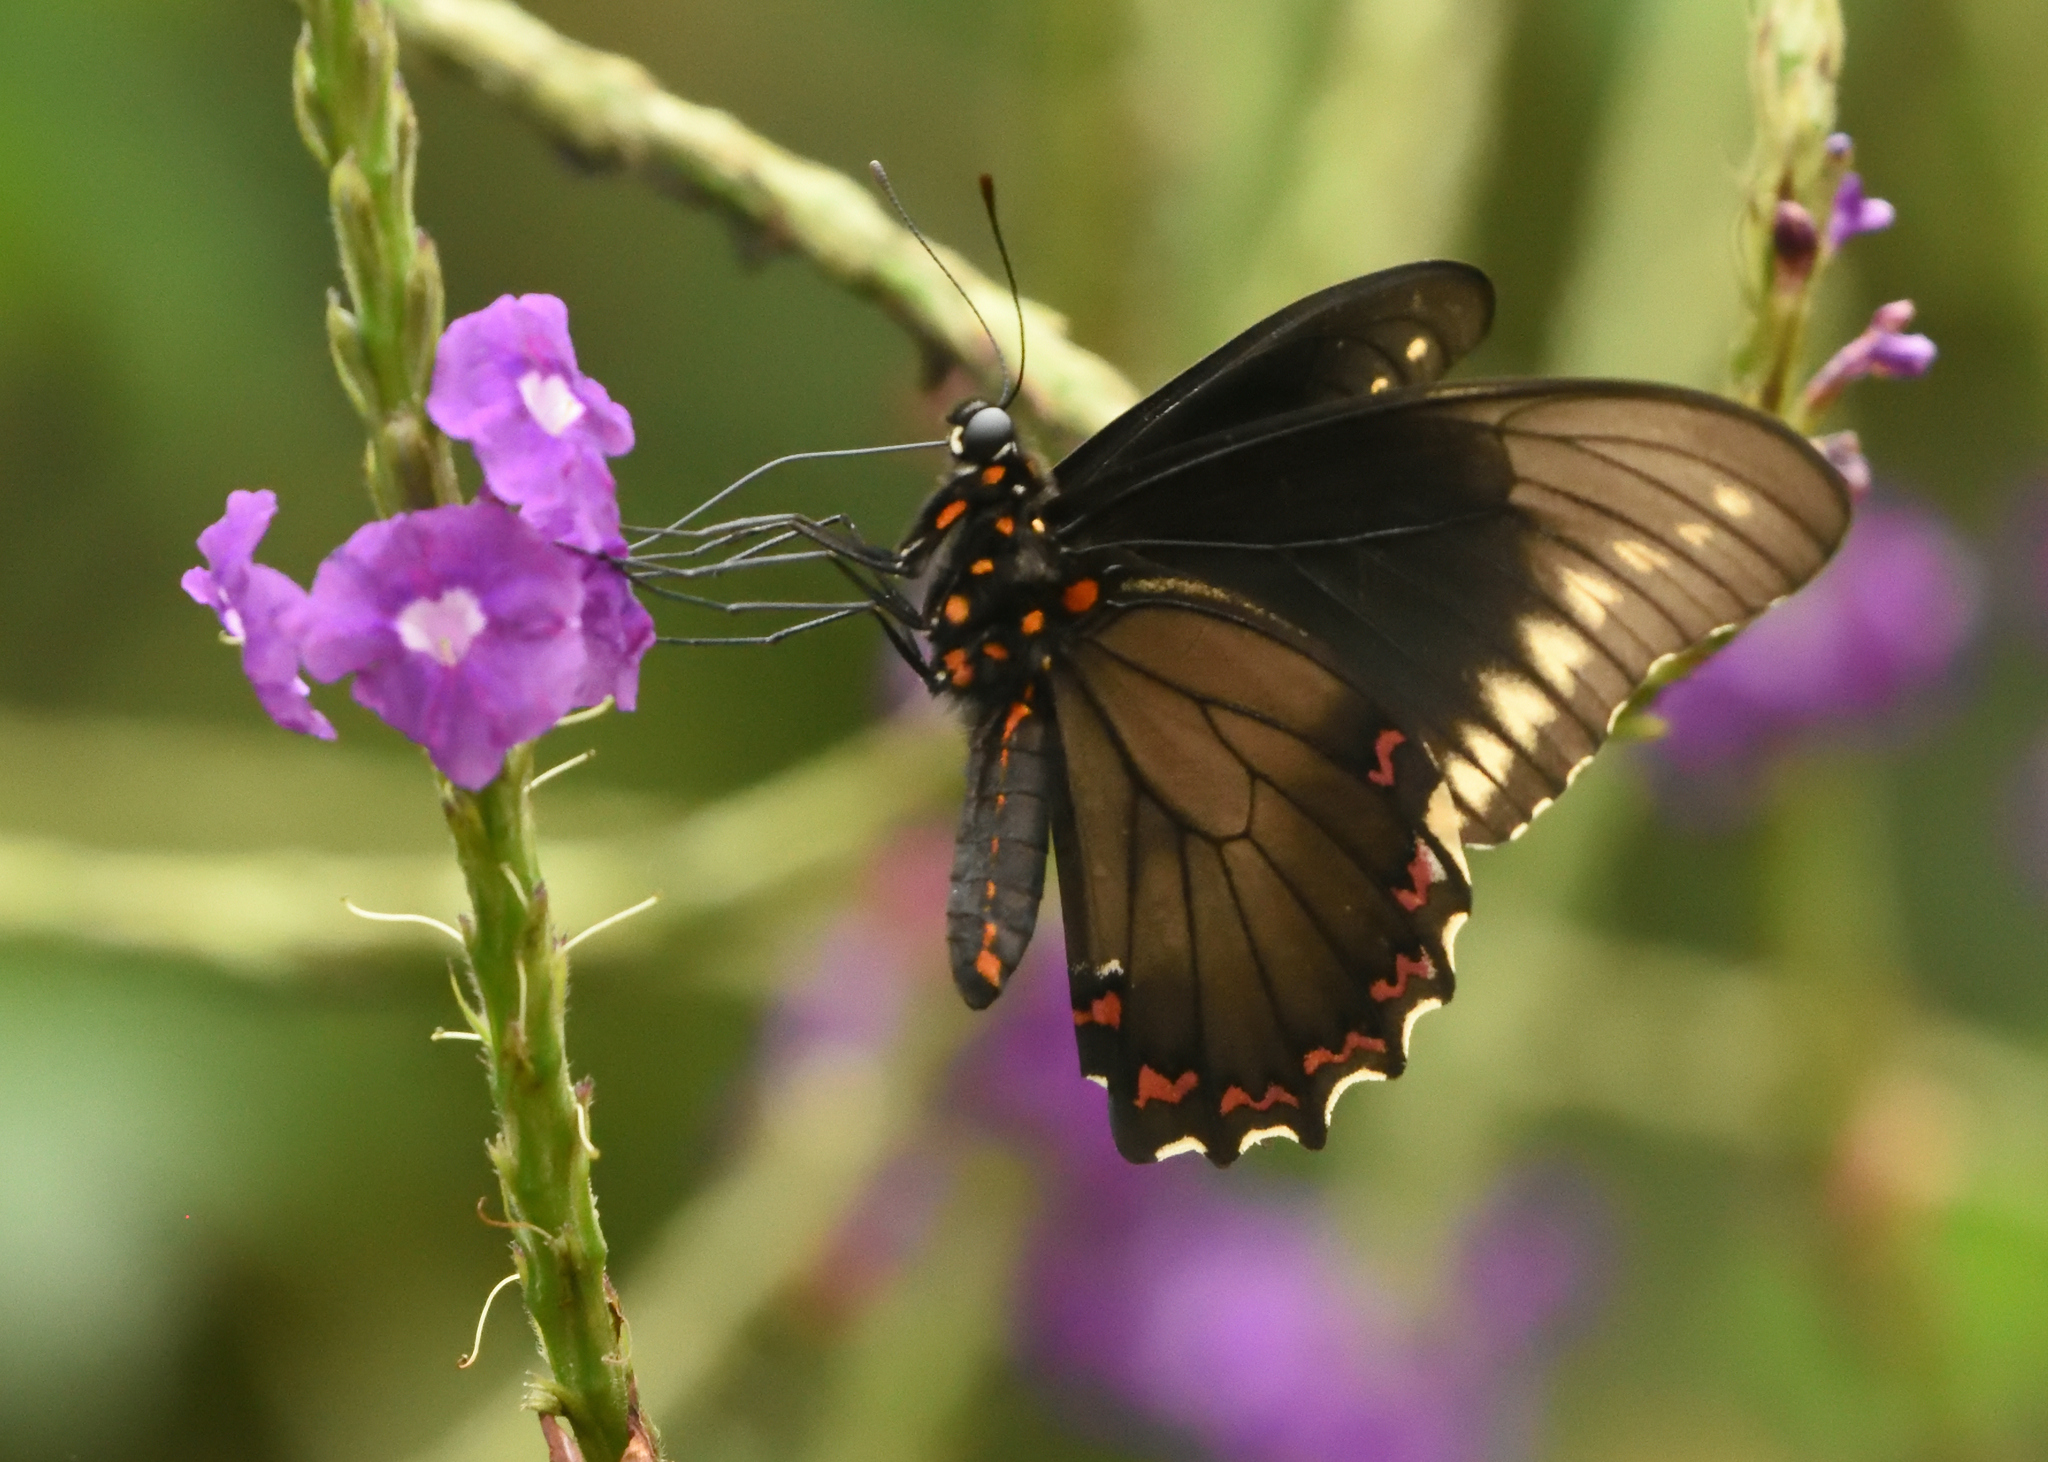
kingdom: Animalia
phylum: Arthropoda
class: Insecta
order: Lepidoptera
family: Papilionidae
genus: Battus
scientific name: Battus polydamas
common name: Polydamas swallowtail
